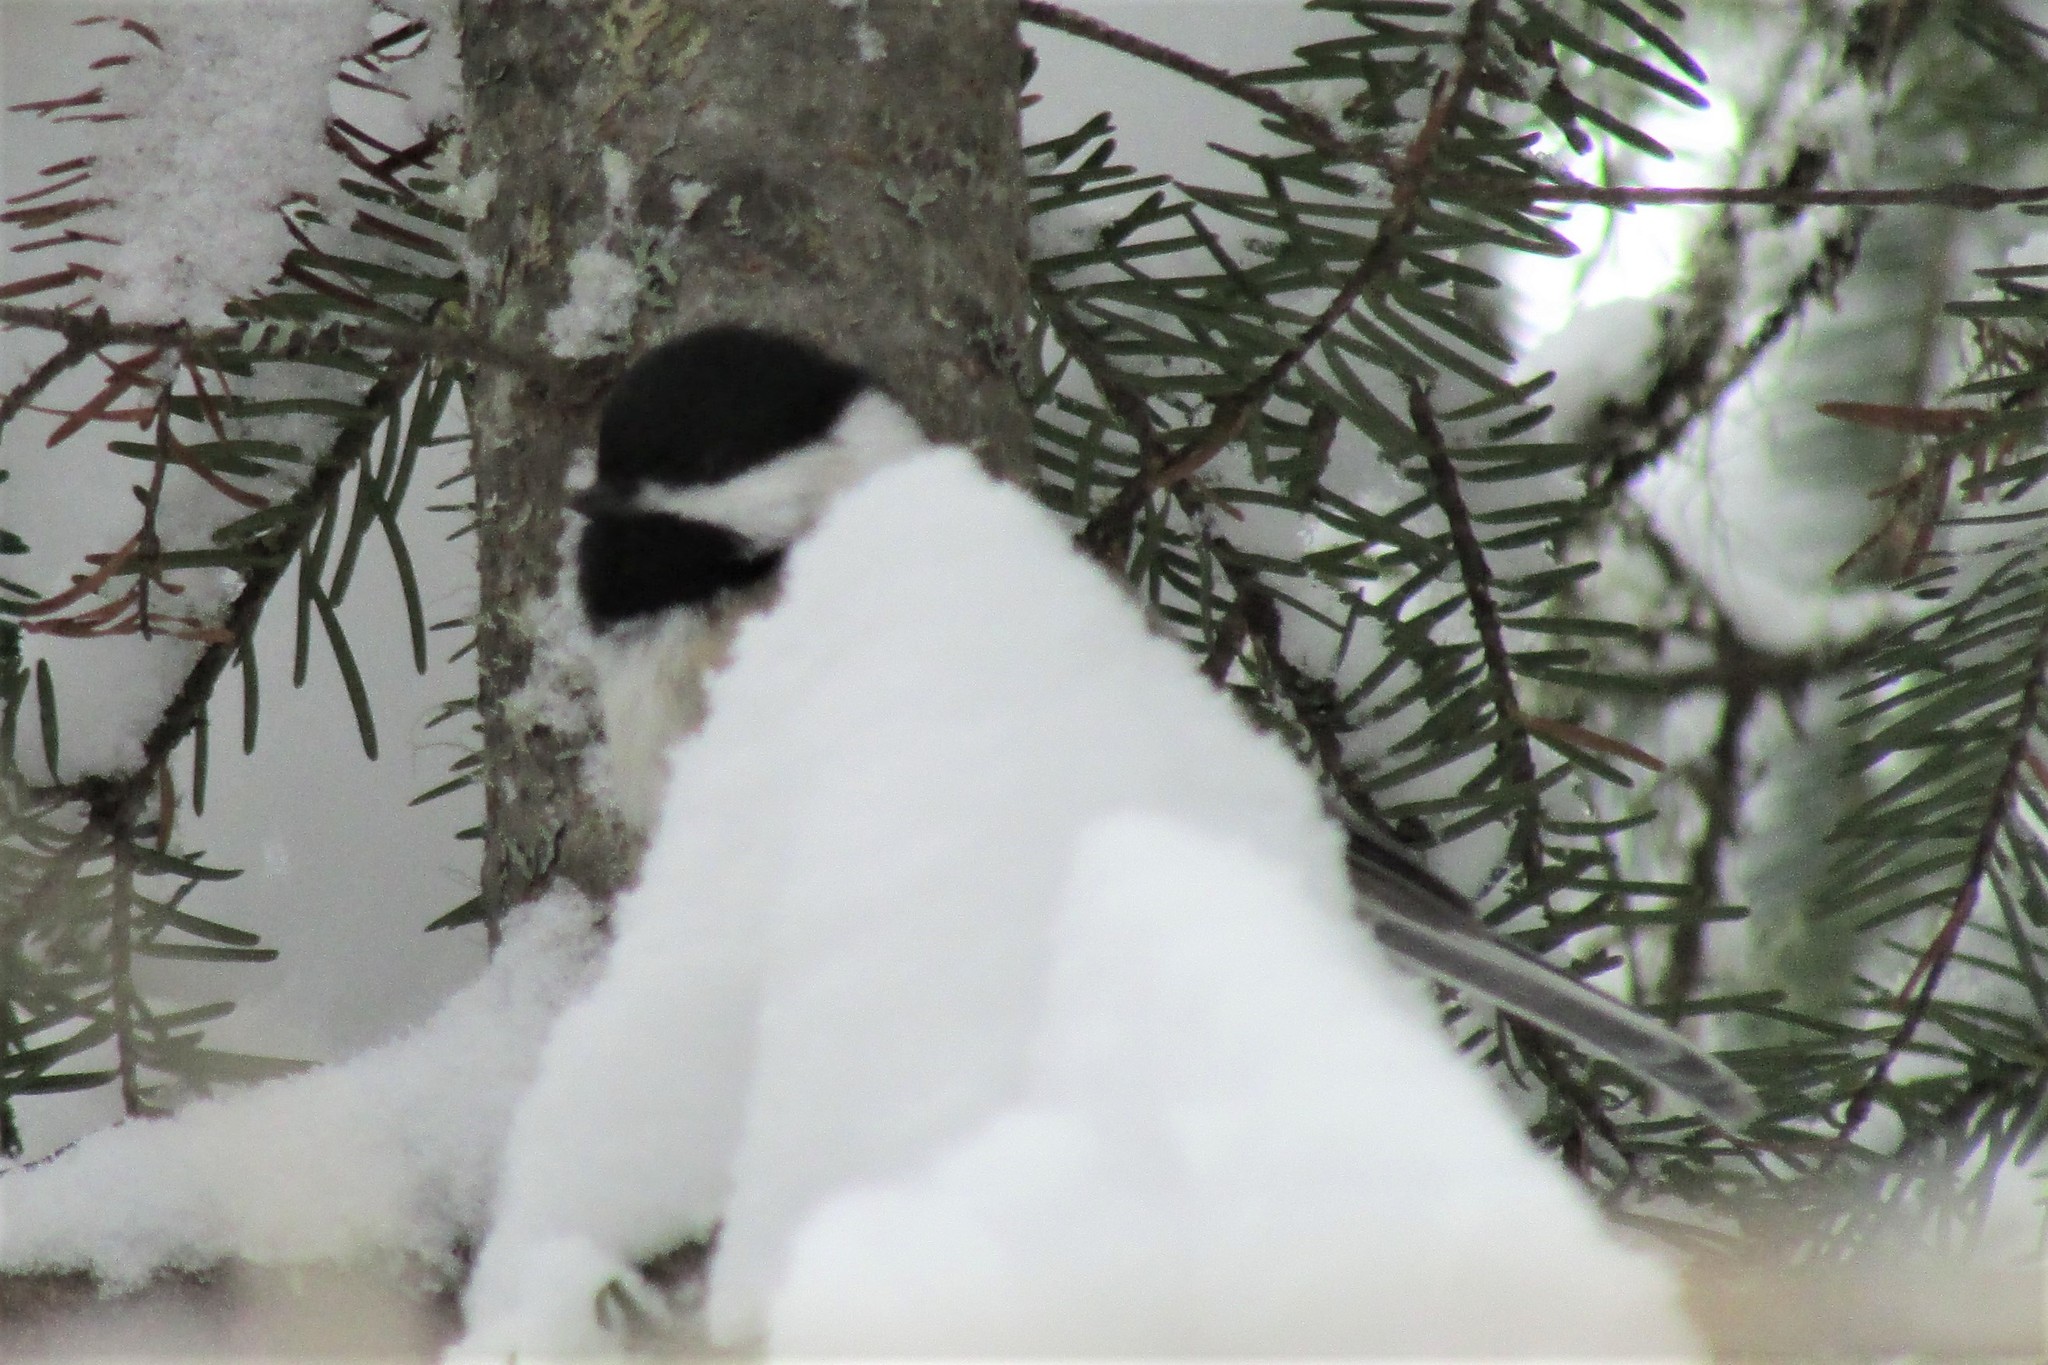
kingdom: Animalia
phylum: Chordata
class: Aves
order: Passeriformes
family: Paridae
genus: Poecile
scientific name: Poecile atricapillus
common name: Black-capped chickadee
